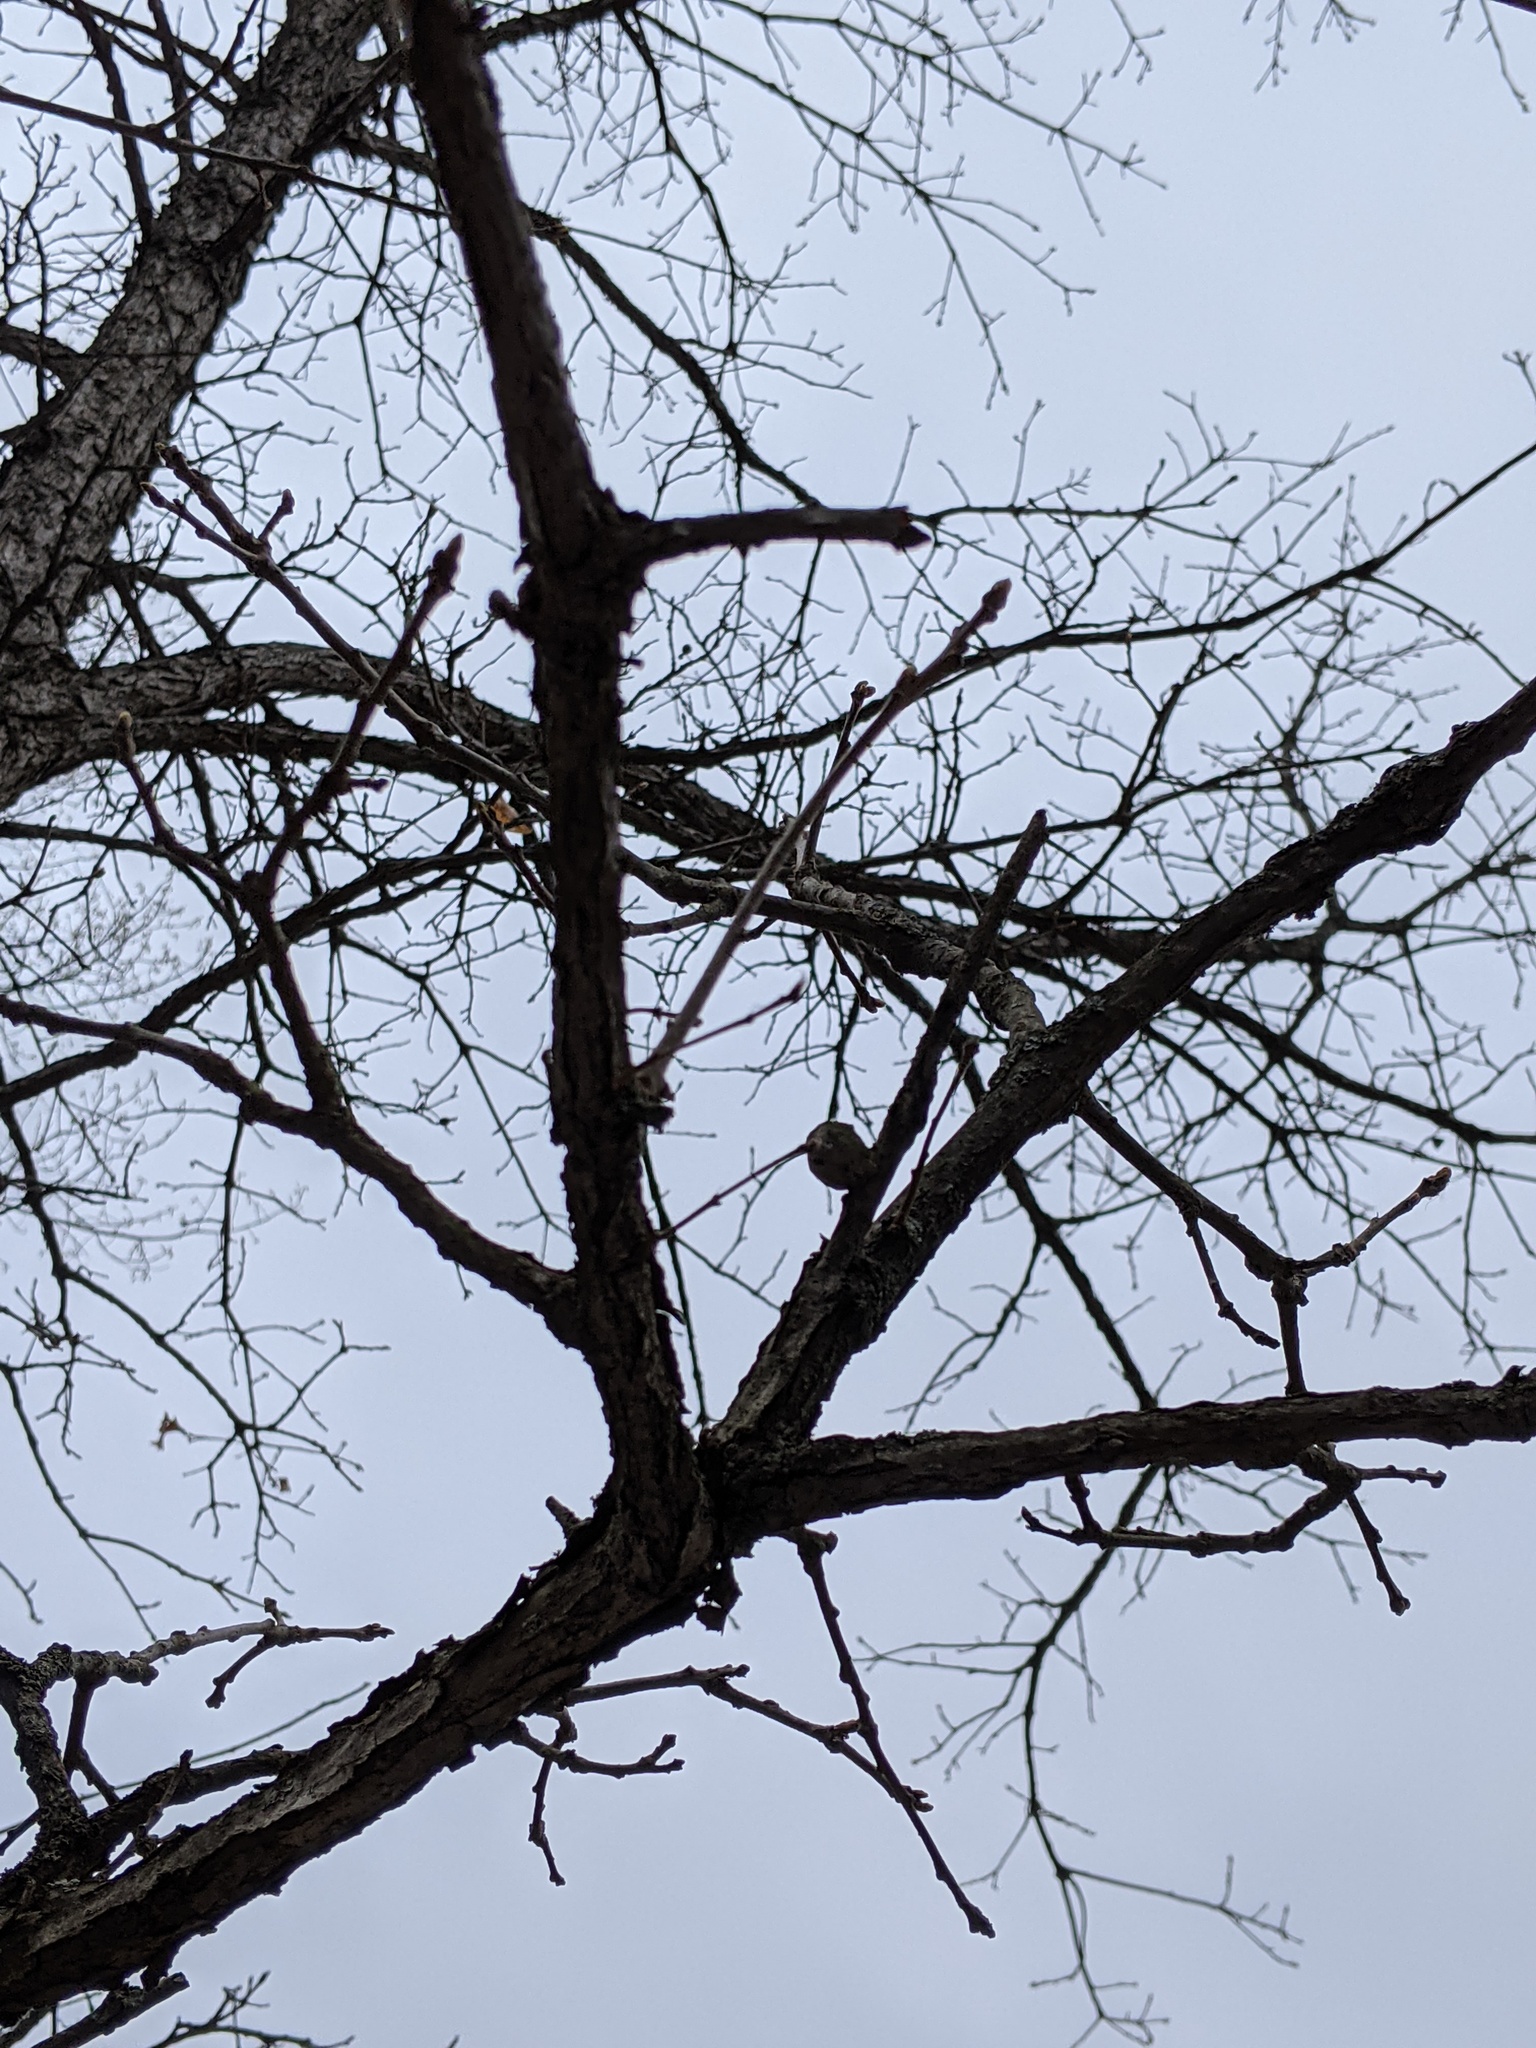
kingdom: Animalia
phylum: Arthropoda
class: Insecta
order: Hymenoptera
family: Cynipidae
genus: Disholcaspis
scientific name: Disholcaspis
